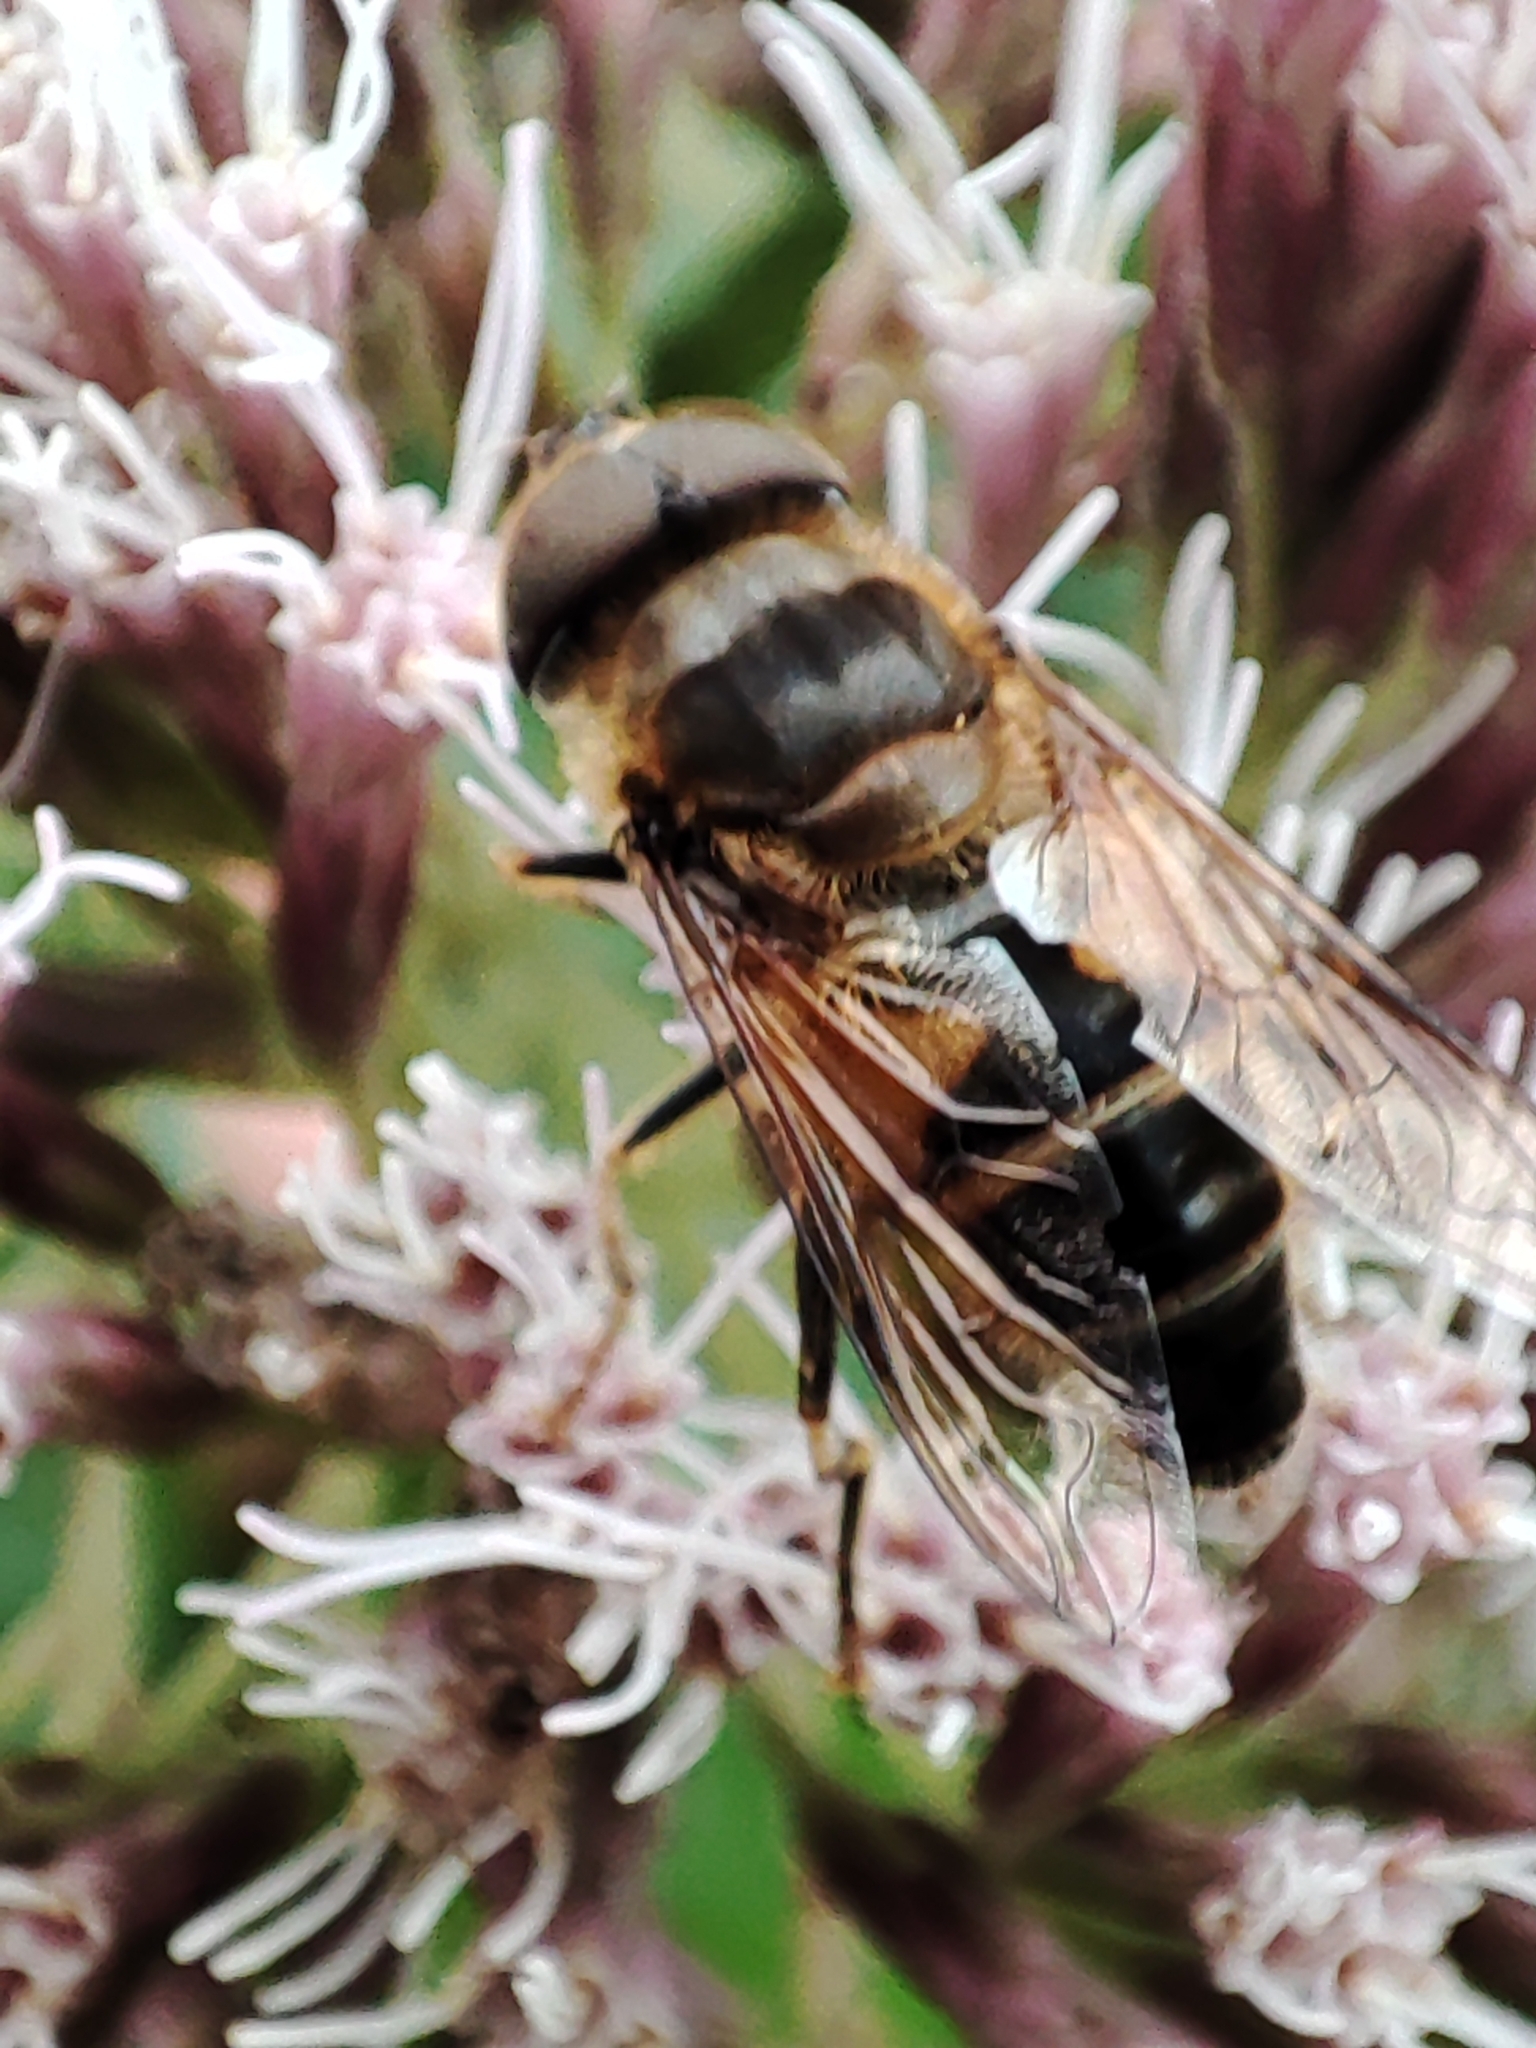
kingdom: Animalia
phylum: Arthropoda
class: Insecta
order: Diptera
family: Syrphidae
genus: Eristalis
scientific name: Eristalis pertinax
